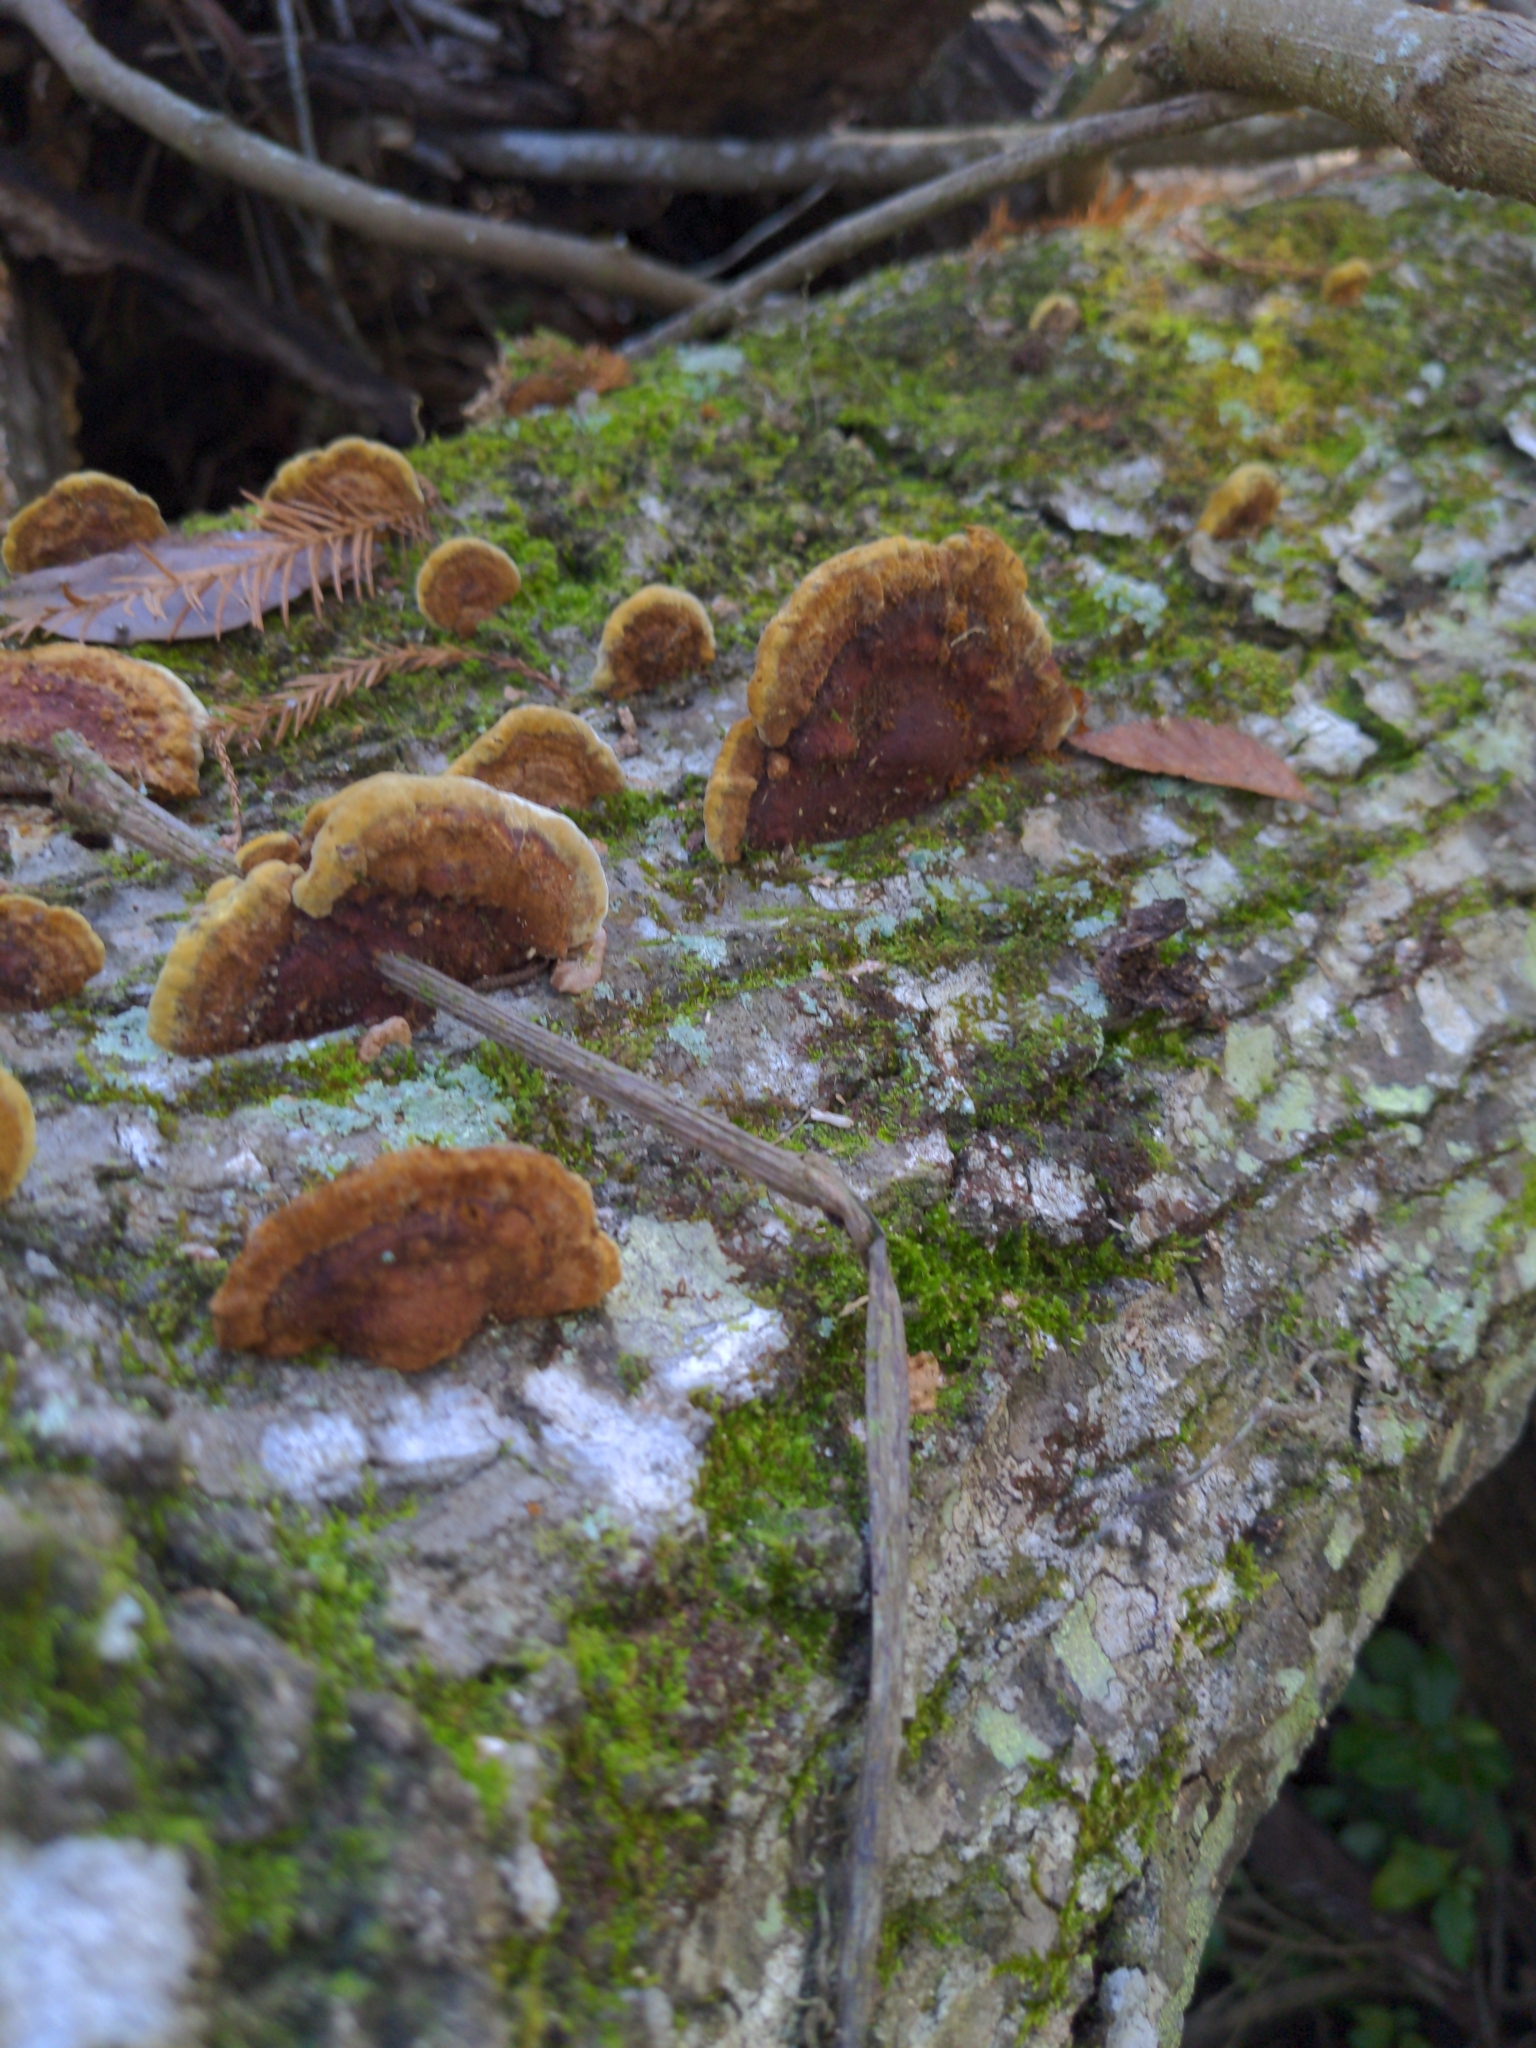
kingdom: Fungi
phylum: Basidiomycota
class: Agaricomycetes
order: Polyporales
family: Laetiporaceae
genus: Phaeolus
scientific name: Phaeolus schweinitzii
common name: Dyer's mazegill
